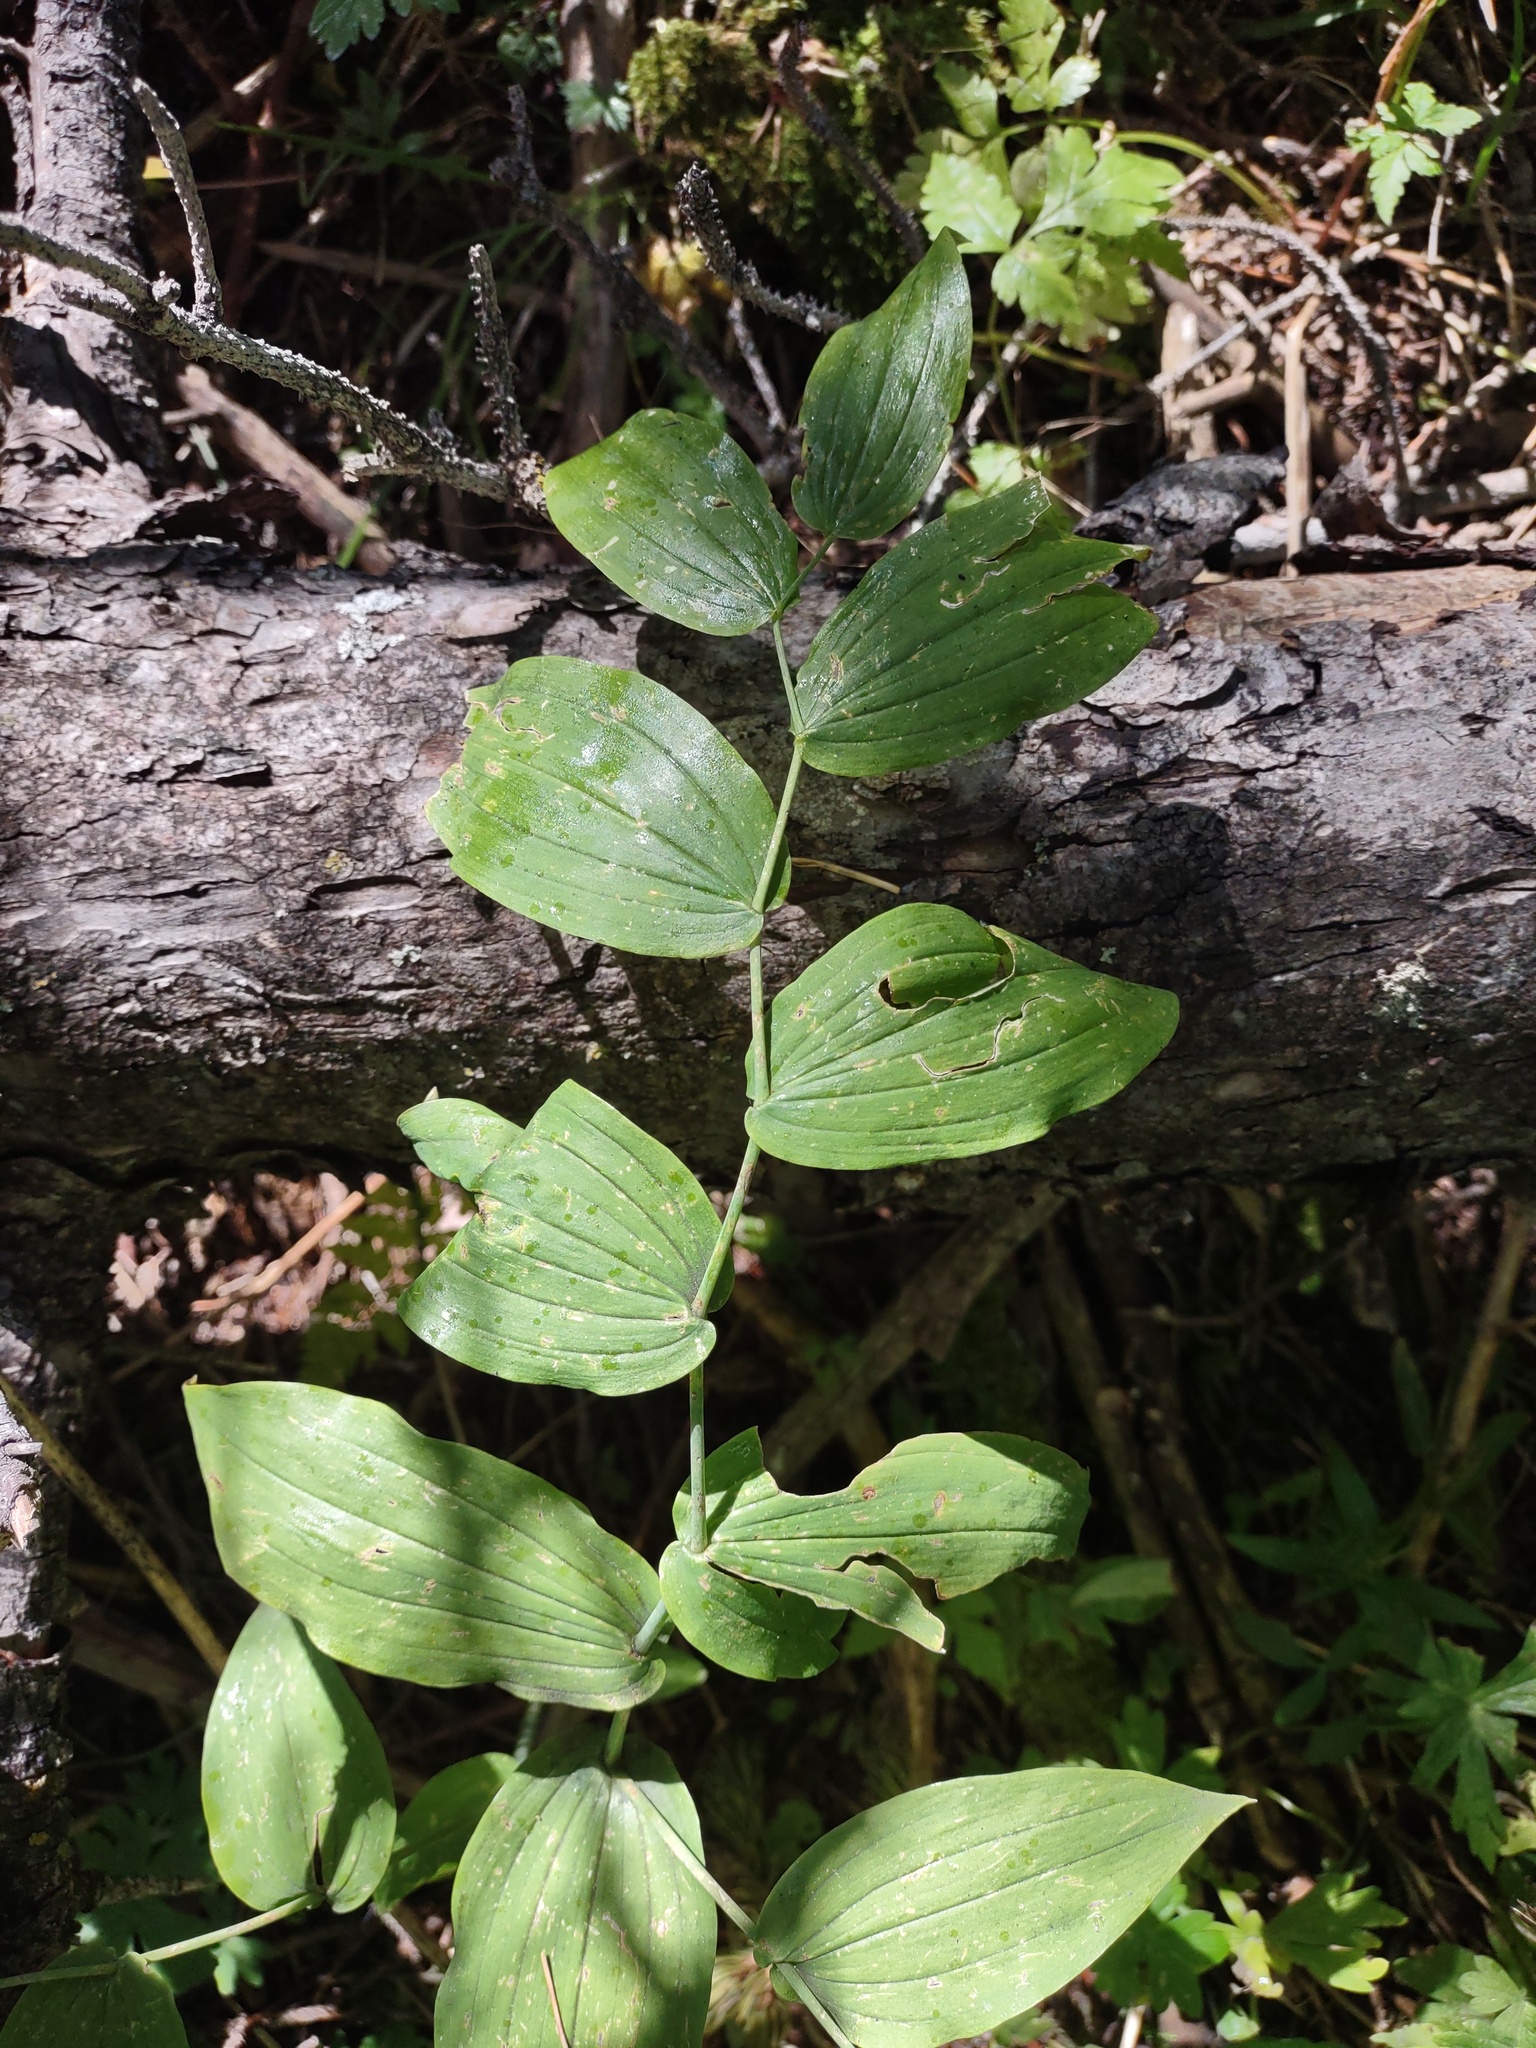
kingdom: Plantae
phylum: Tracheophyta
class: Liliopsida
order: Liliales
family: Liliaceae
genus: Streptopus
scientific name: Streptopus amplexifolius
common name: Clasp twisted stalk
